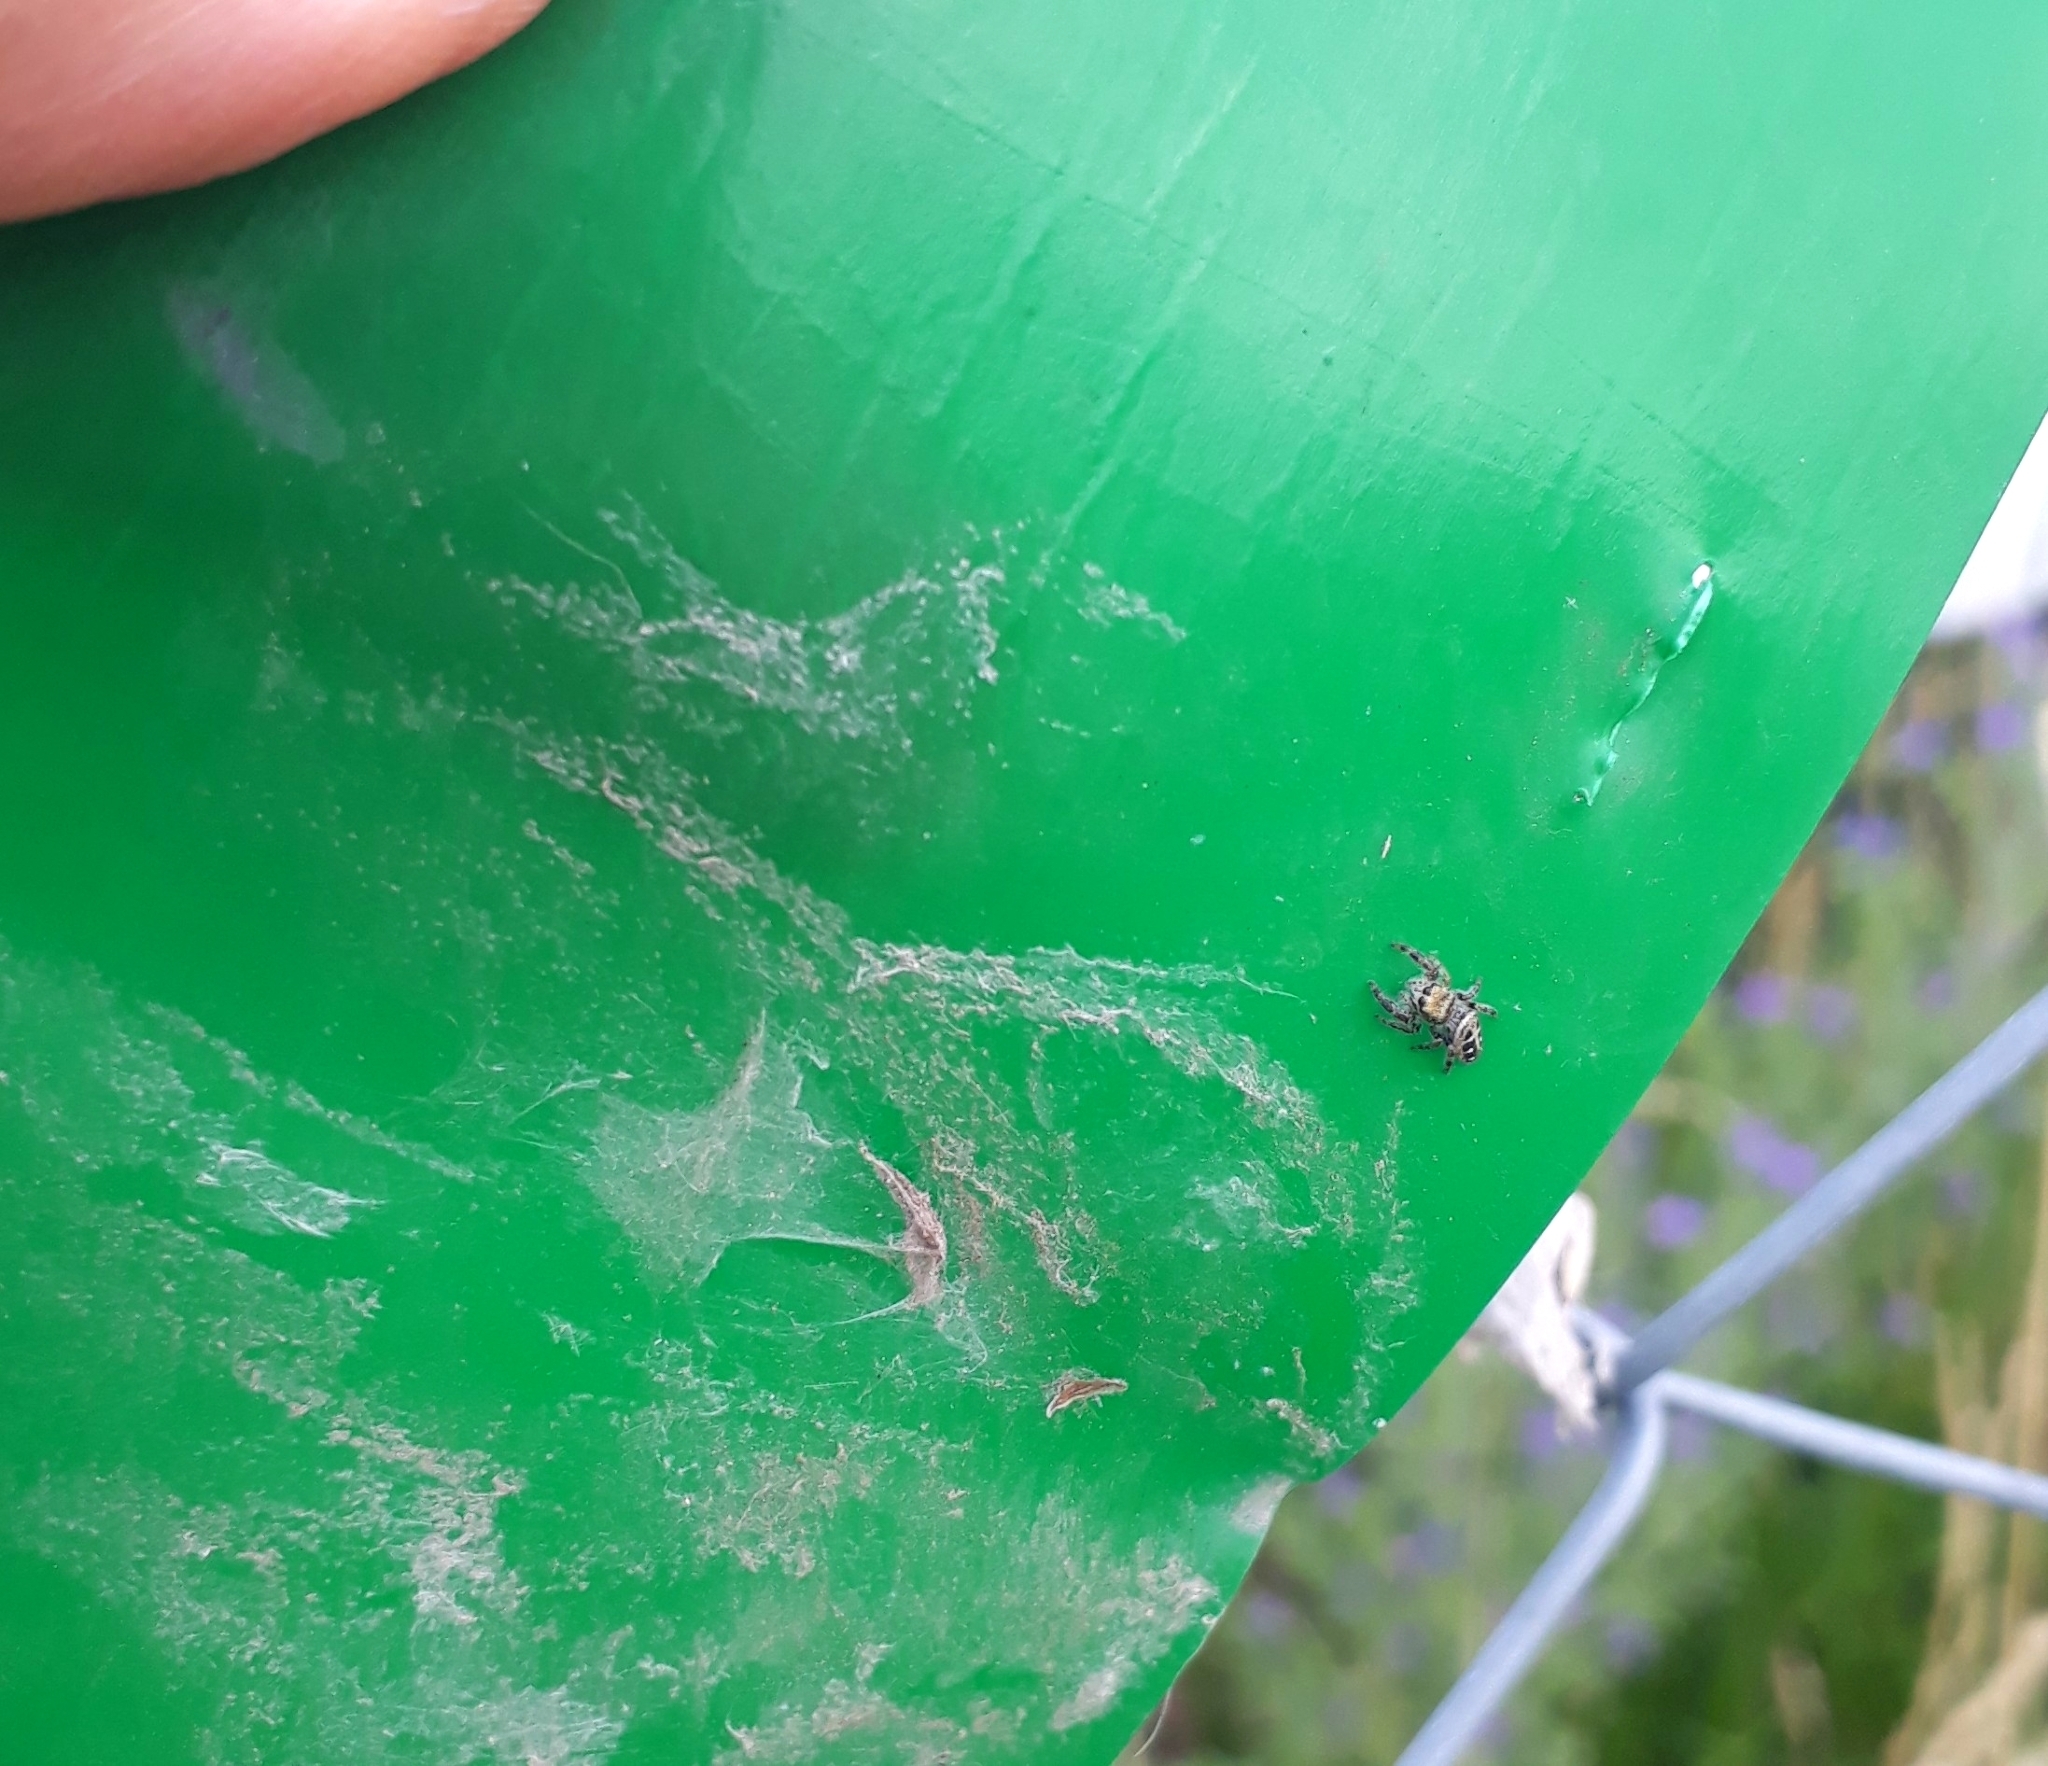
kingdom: Animalia
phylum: Arthropoda
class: Arachnida
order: Araneae
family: Salticidae
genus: Dendryphantes
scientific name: Dendryphantes mordax
